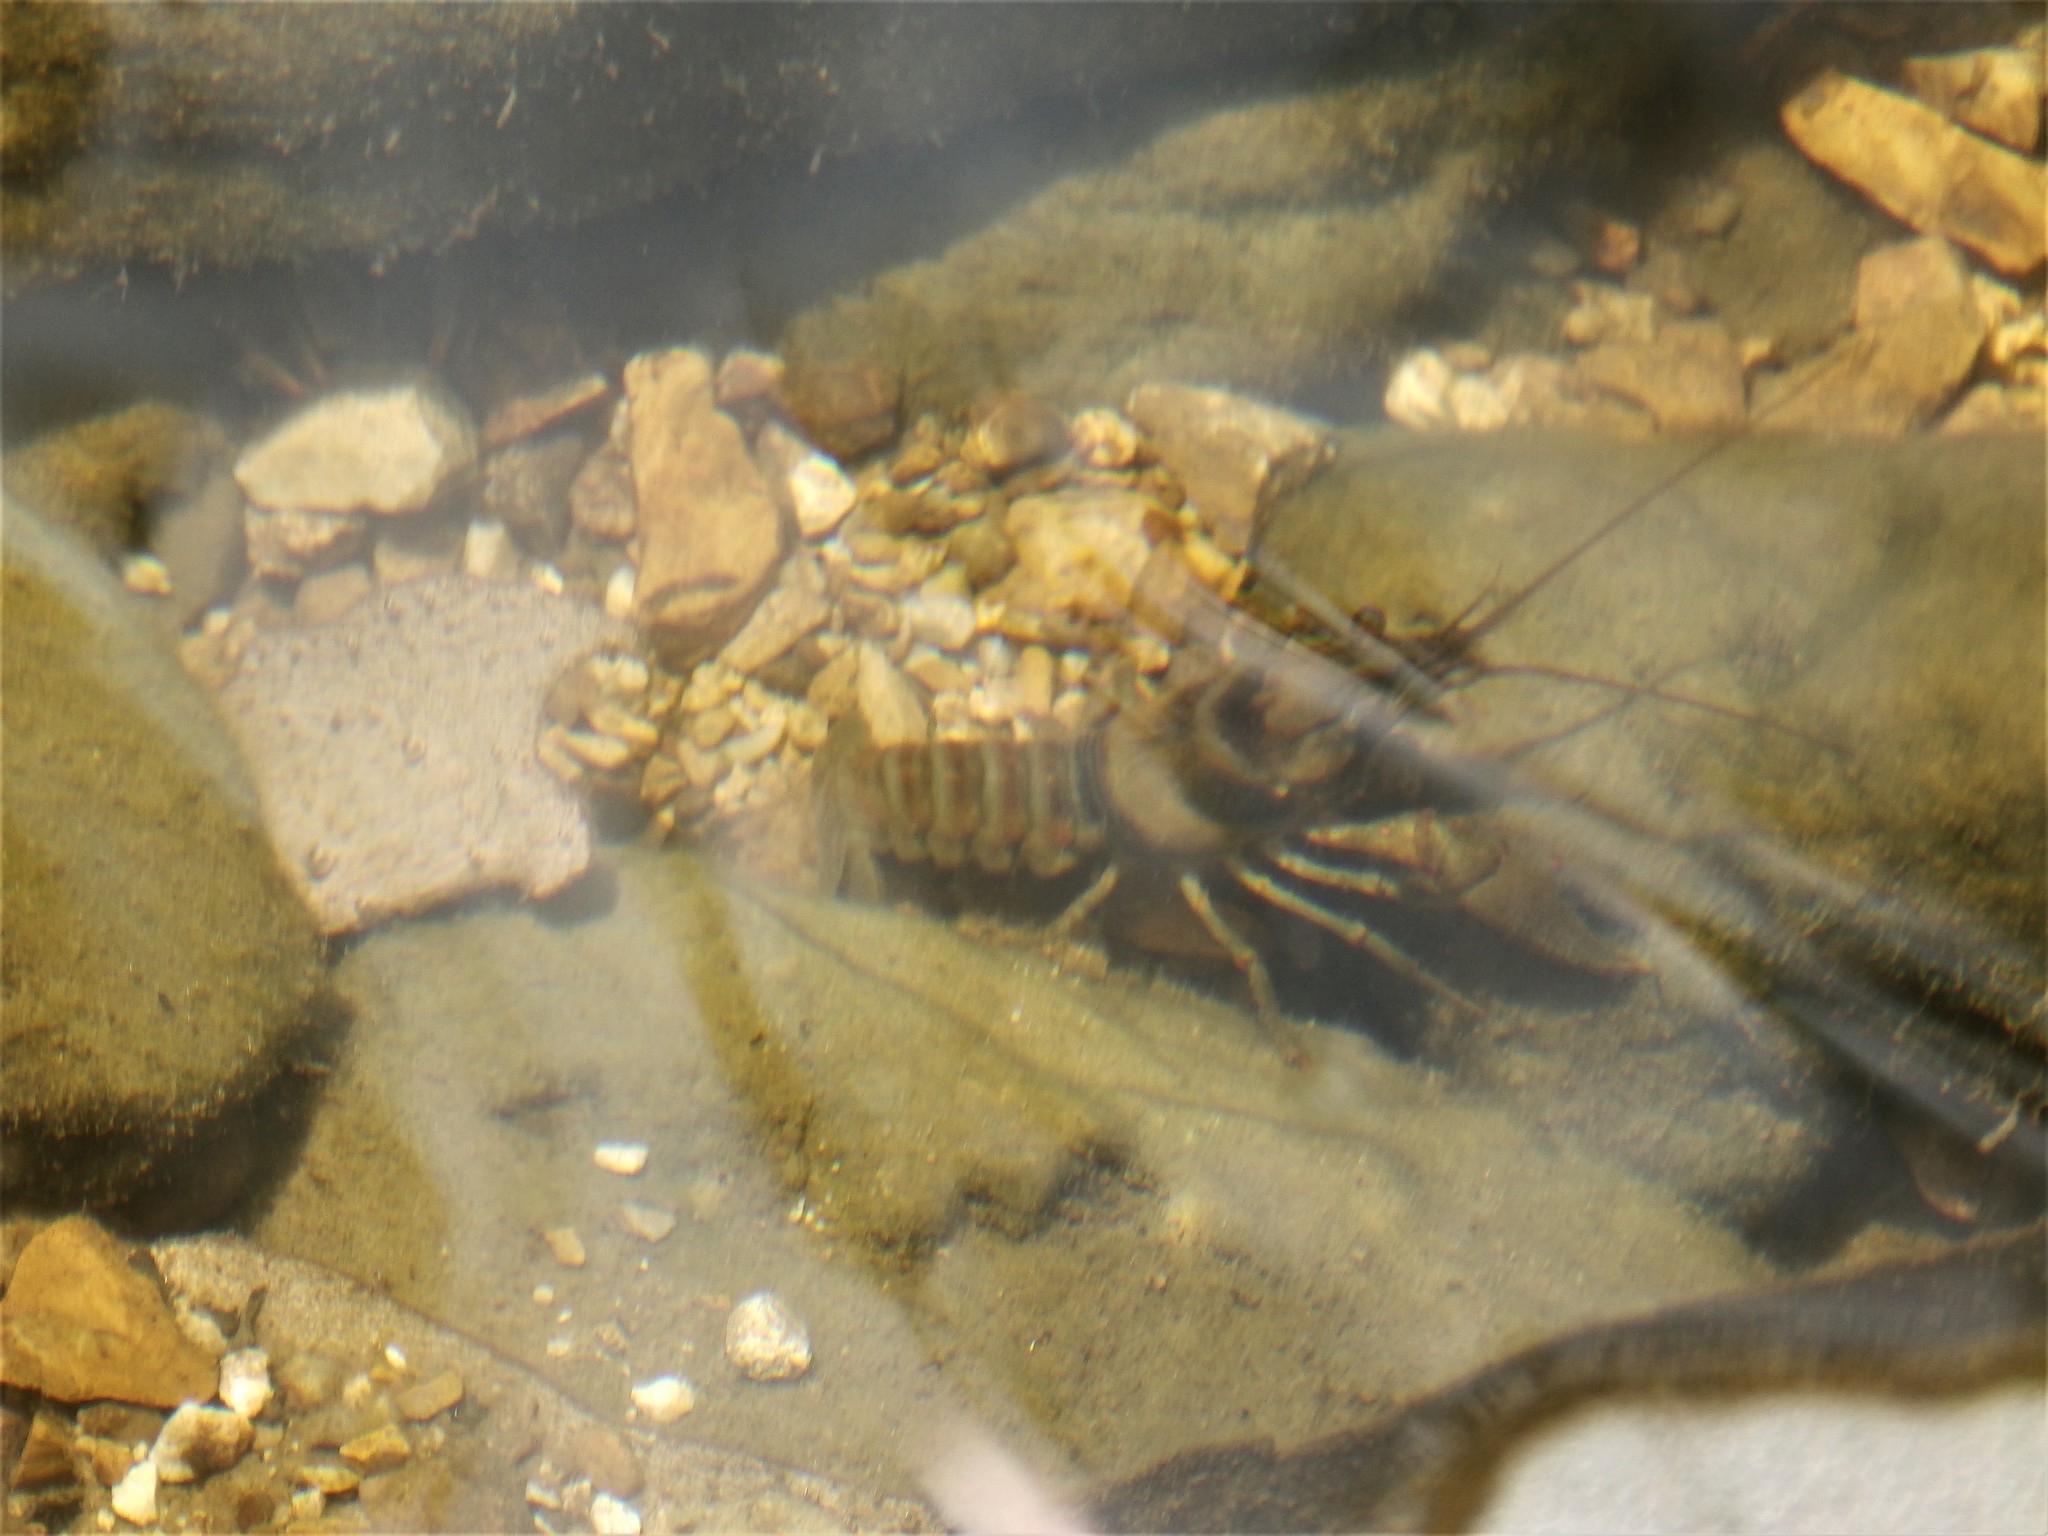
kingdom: Animalia
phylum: Arthropoda
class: Malacostraca
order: Decapoda
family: Cambaridae
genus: Faxonius
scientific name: Faxonius harrisonii
